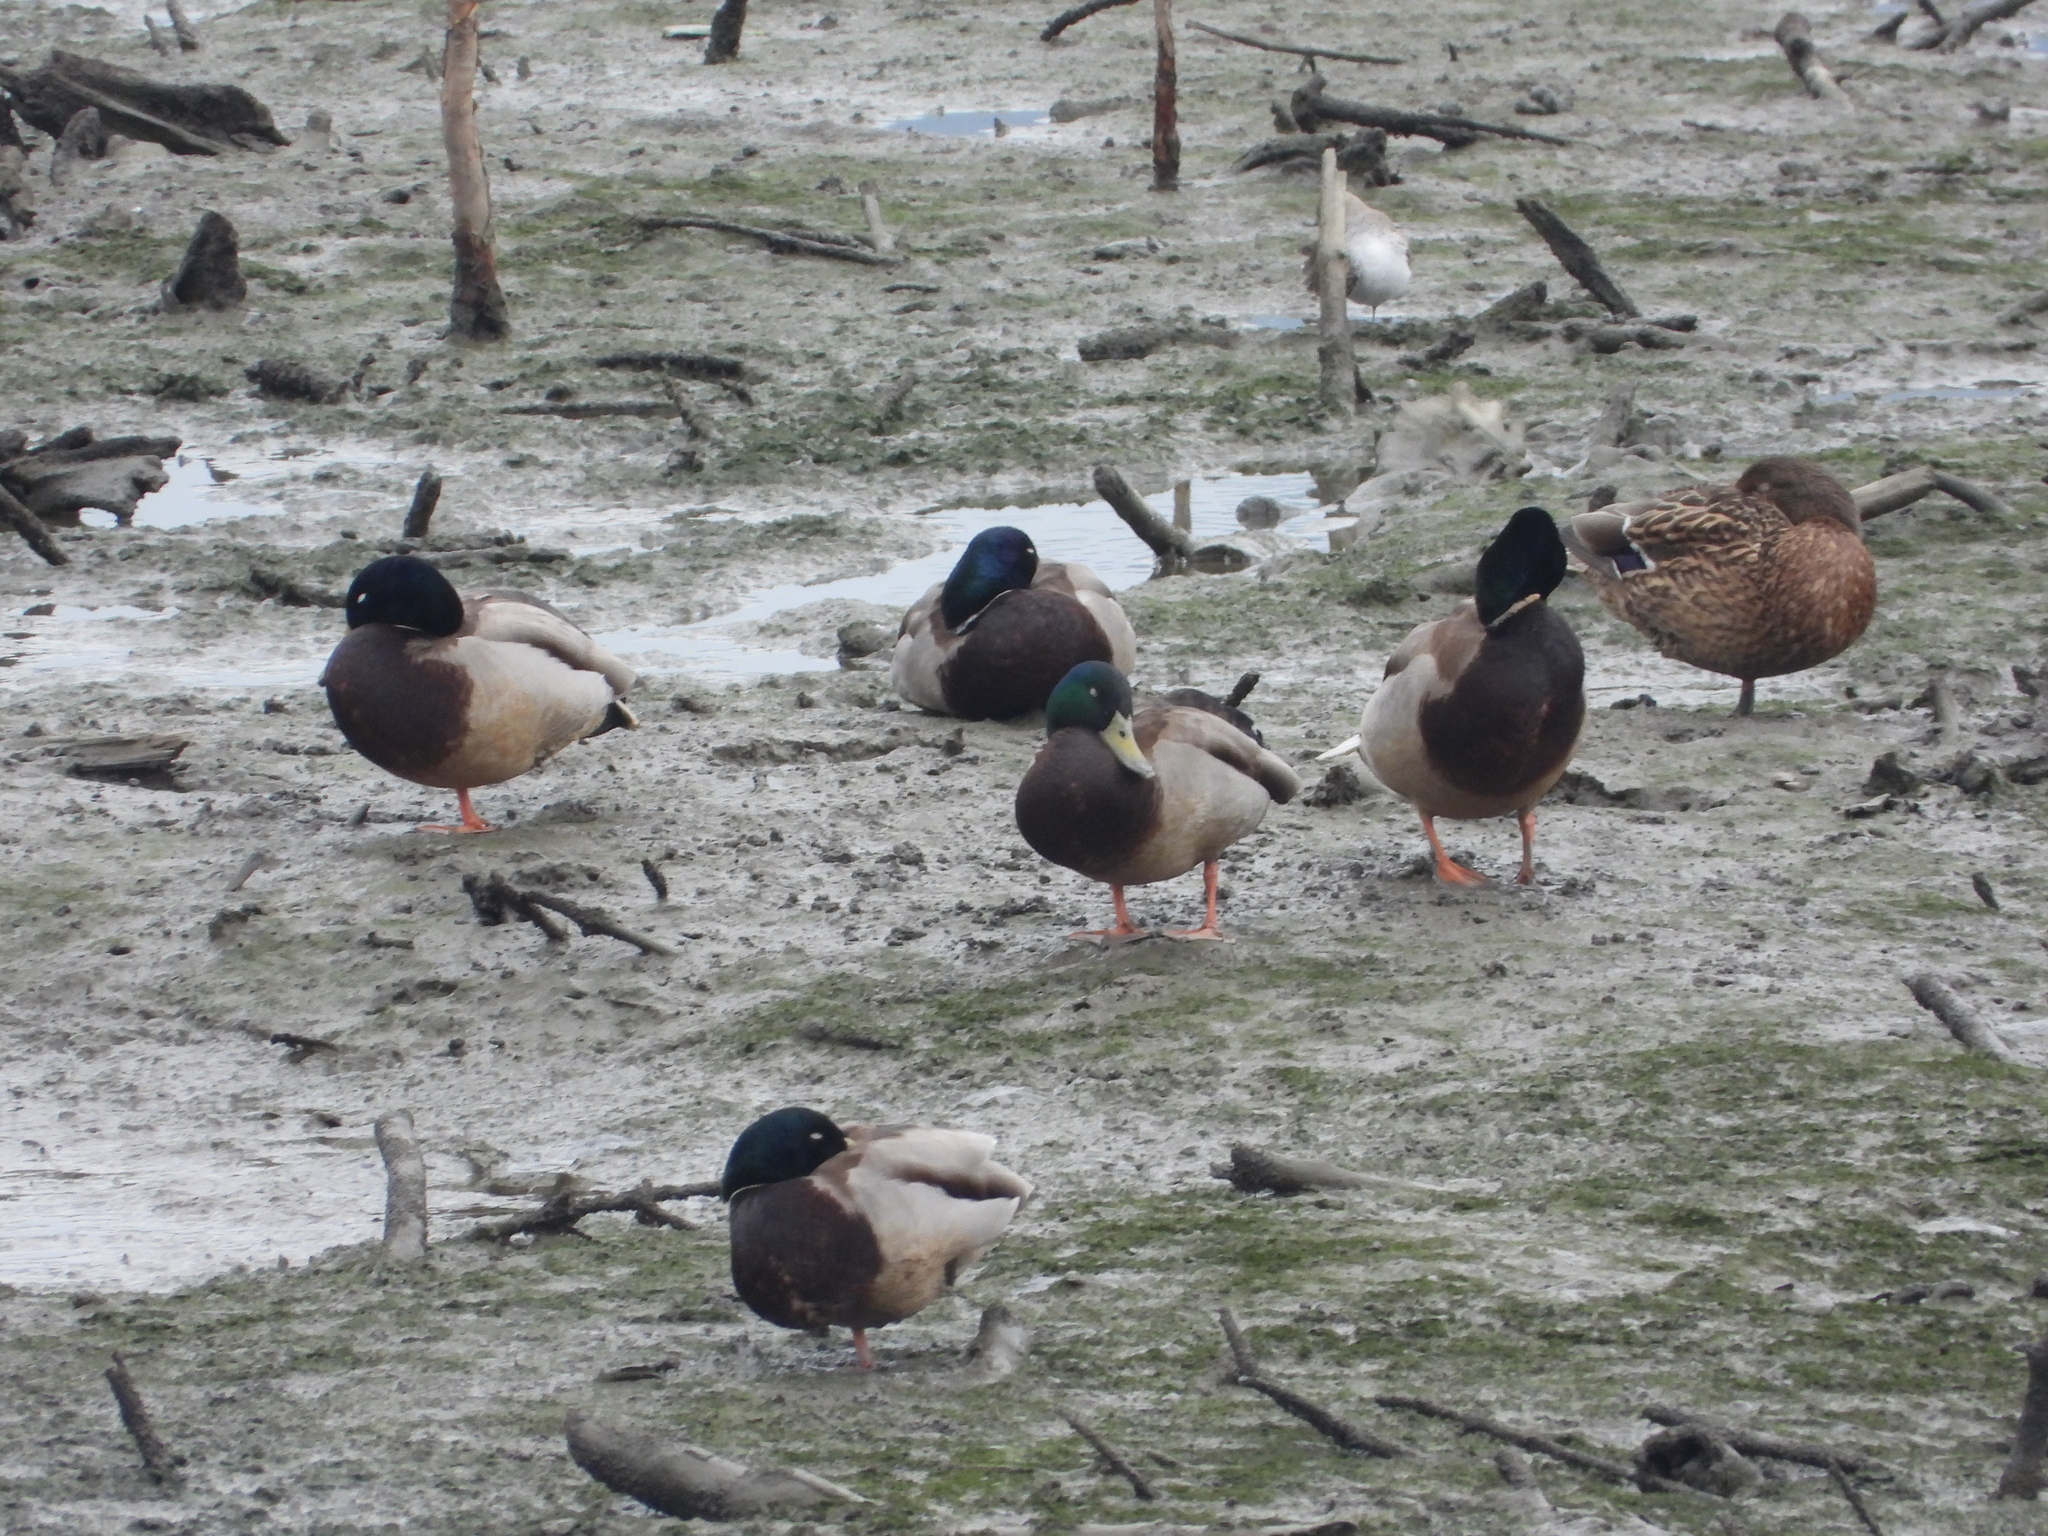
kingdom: Animalia
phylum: Chordata
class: Aves
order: Anseriformes
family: Anatidae
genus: Anas
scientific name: Anas platyrhynchos
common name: Mallard
